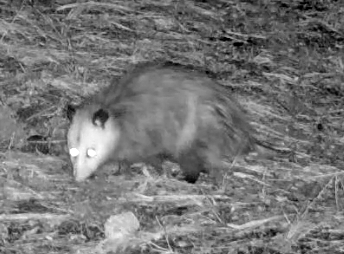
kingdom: Animalia
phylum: Chordata
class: Mammalia
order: Didelphimorphia
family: Didelphidae
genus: Didelphis
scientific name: Didelphis virginiana
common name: Virginia opossum
